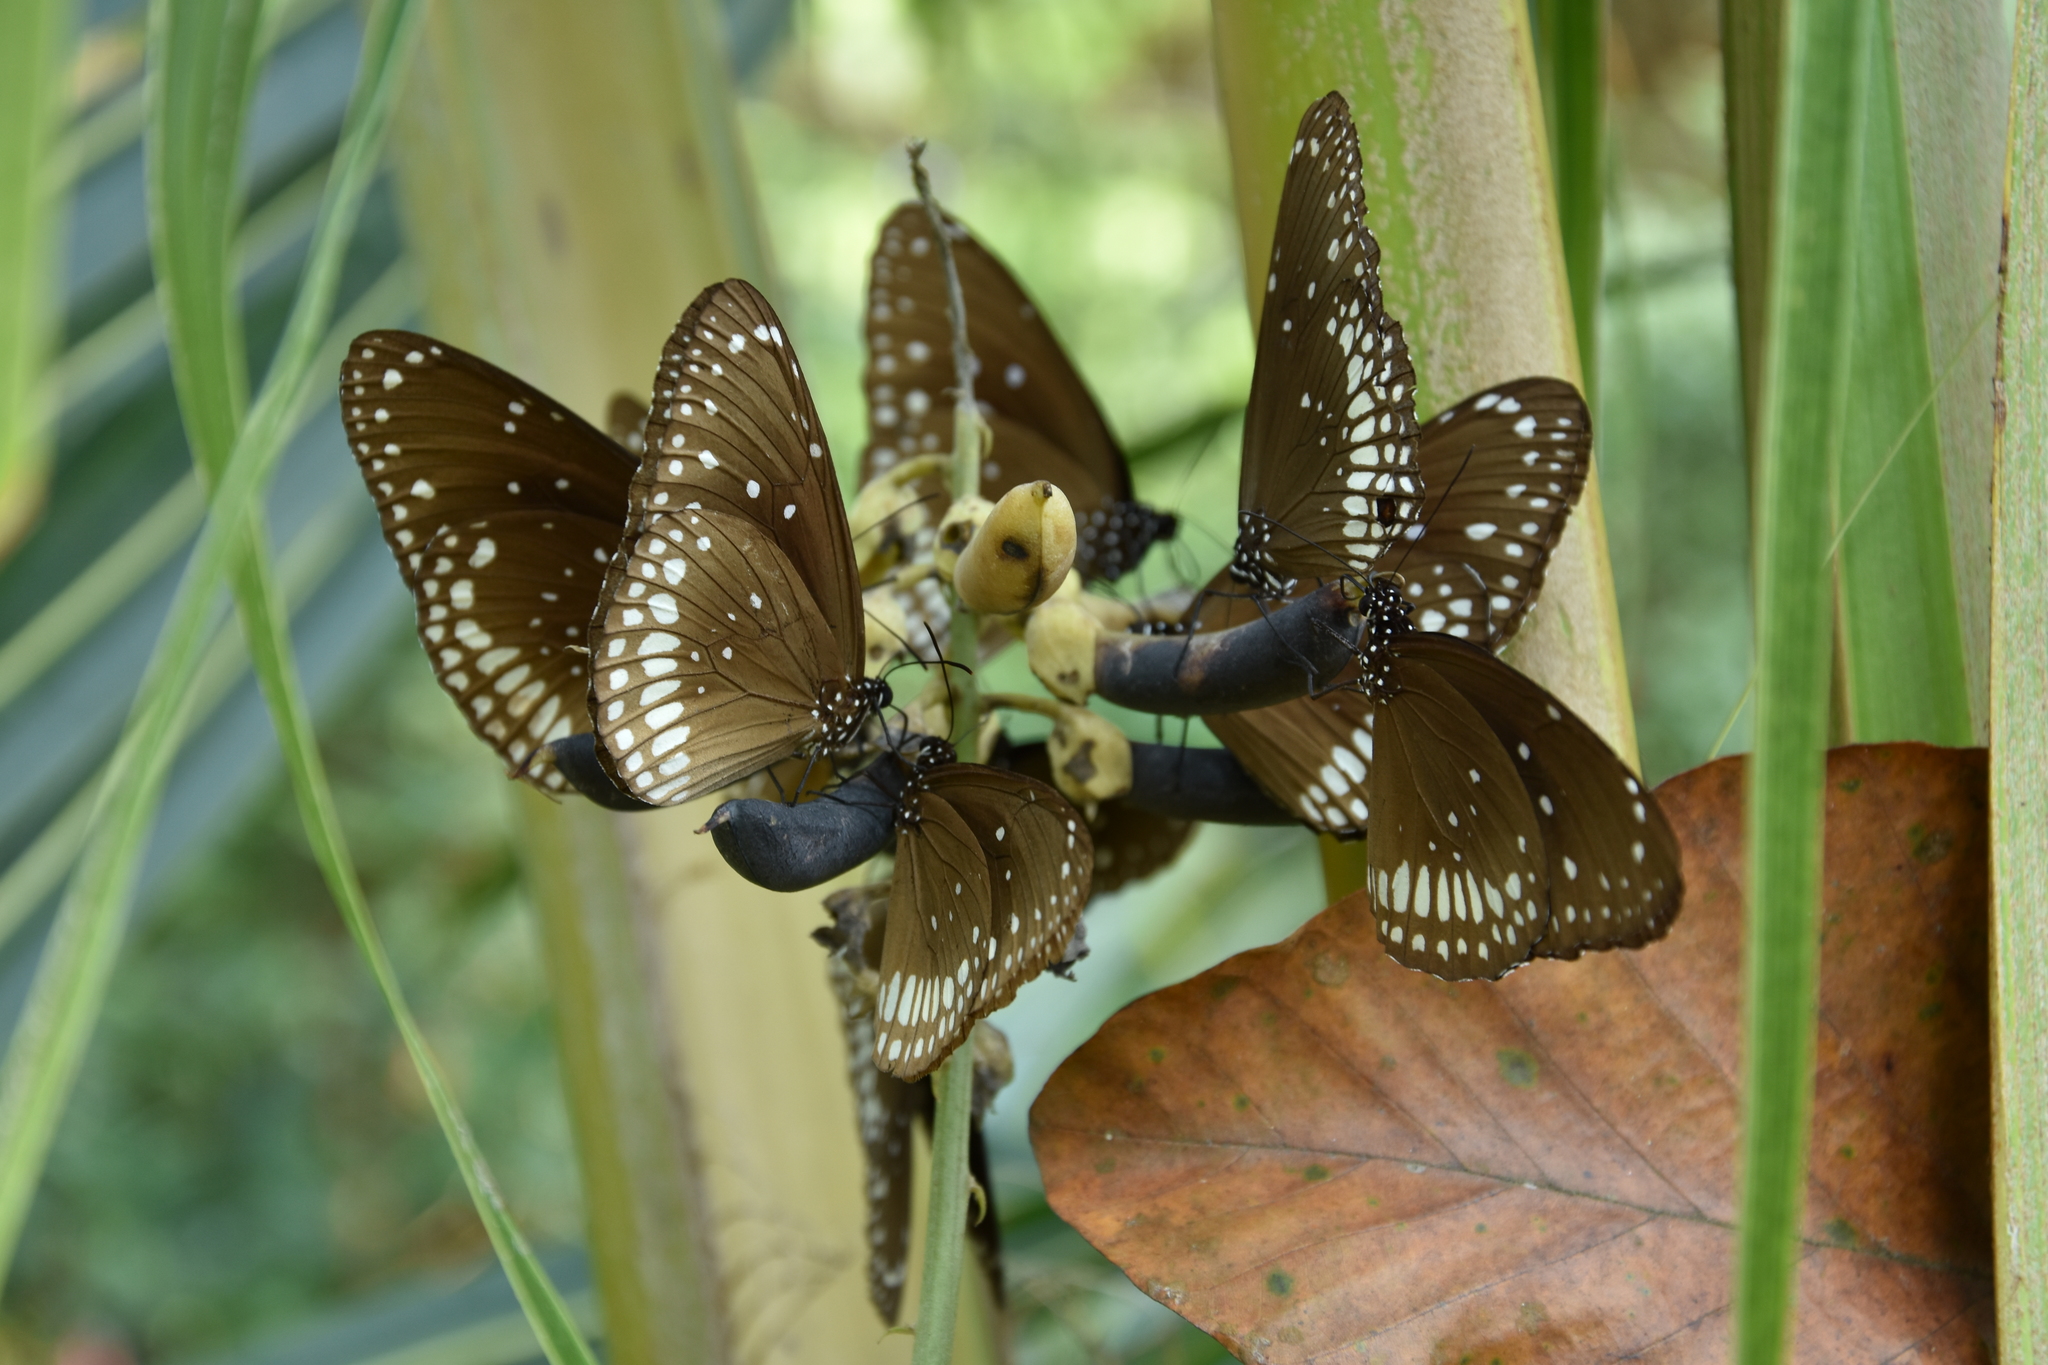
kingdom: Animalia
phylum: Arthropoda
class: Insecta
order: Lepidoptera
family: Nymphalidae
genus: Euploea
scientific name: Euploea core
